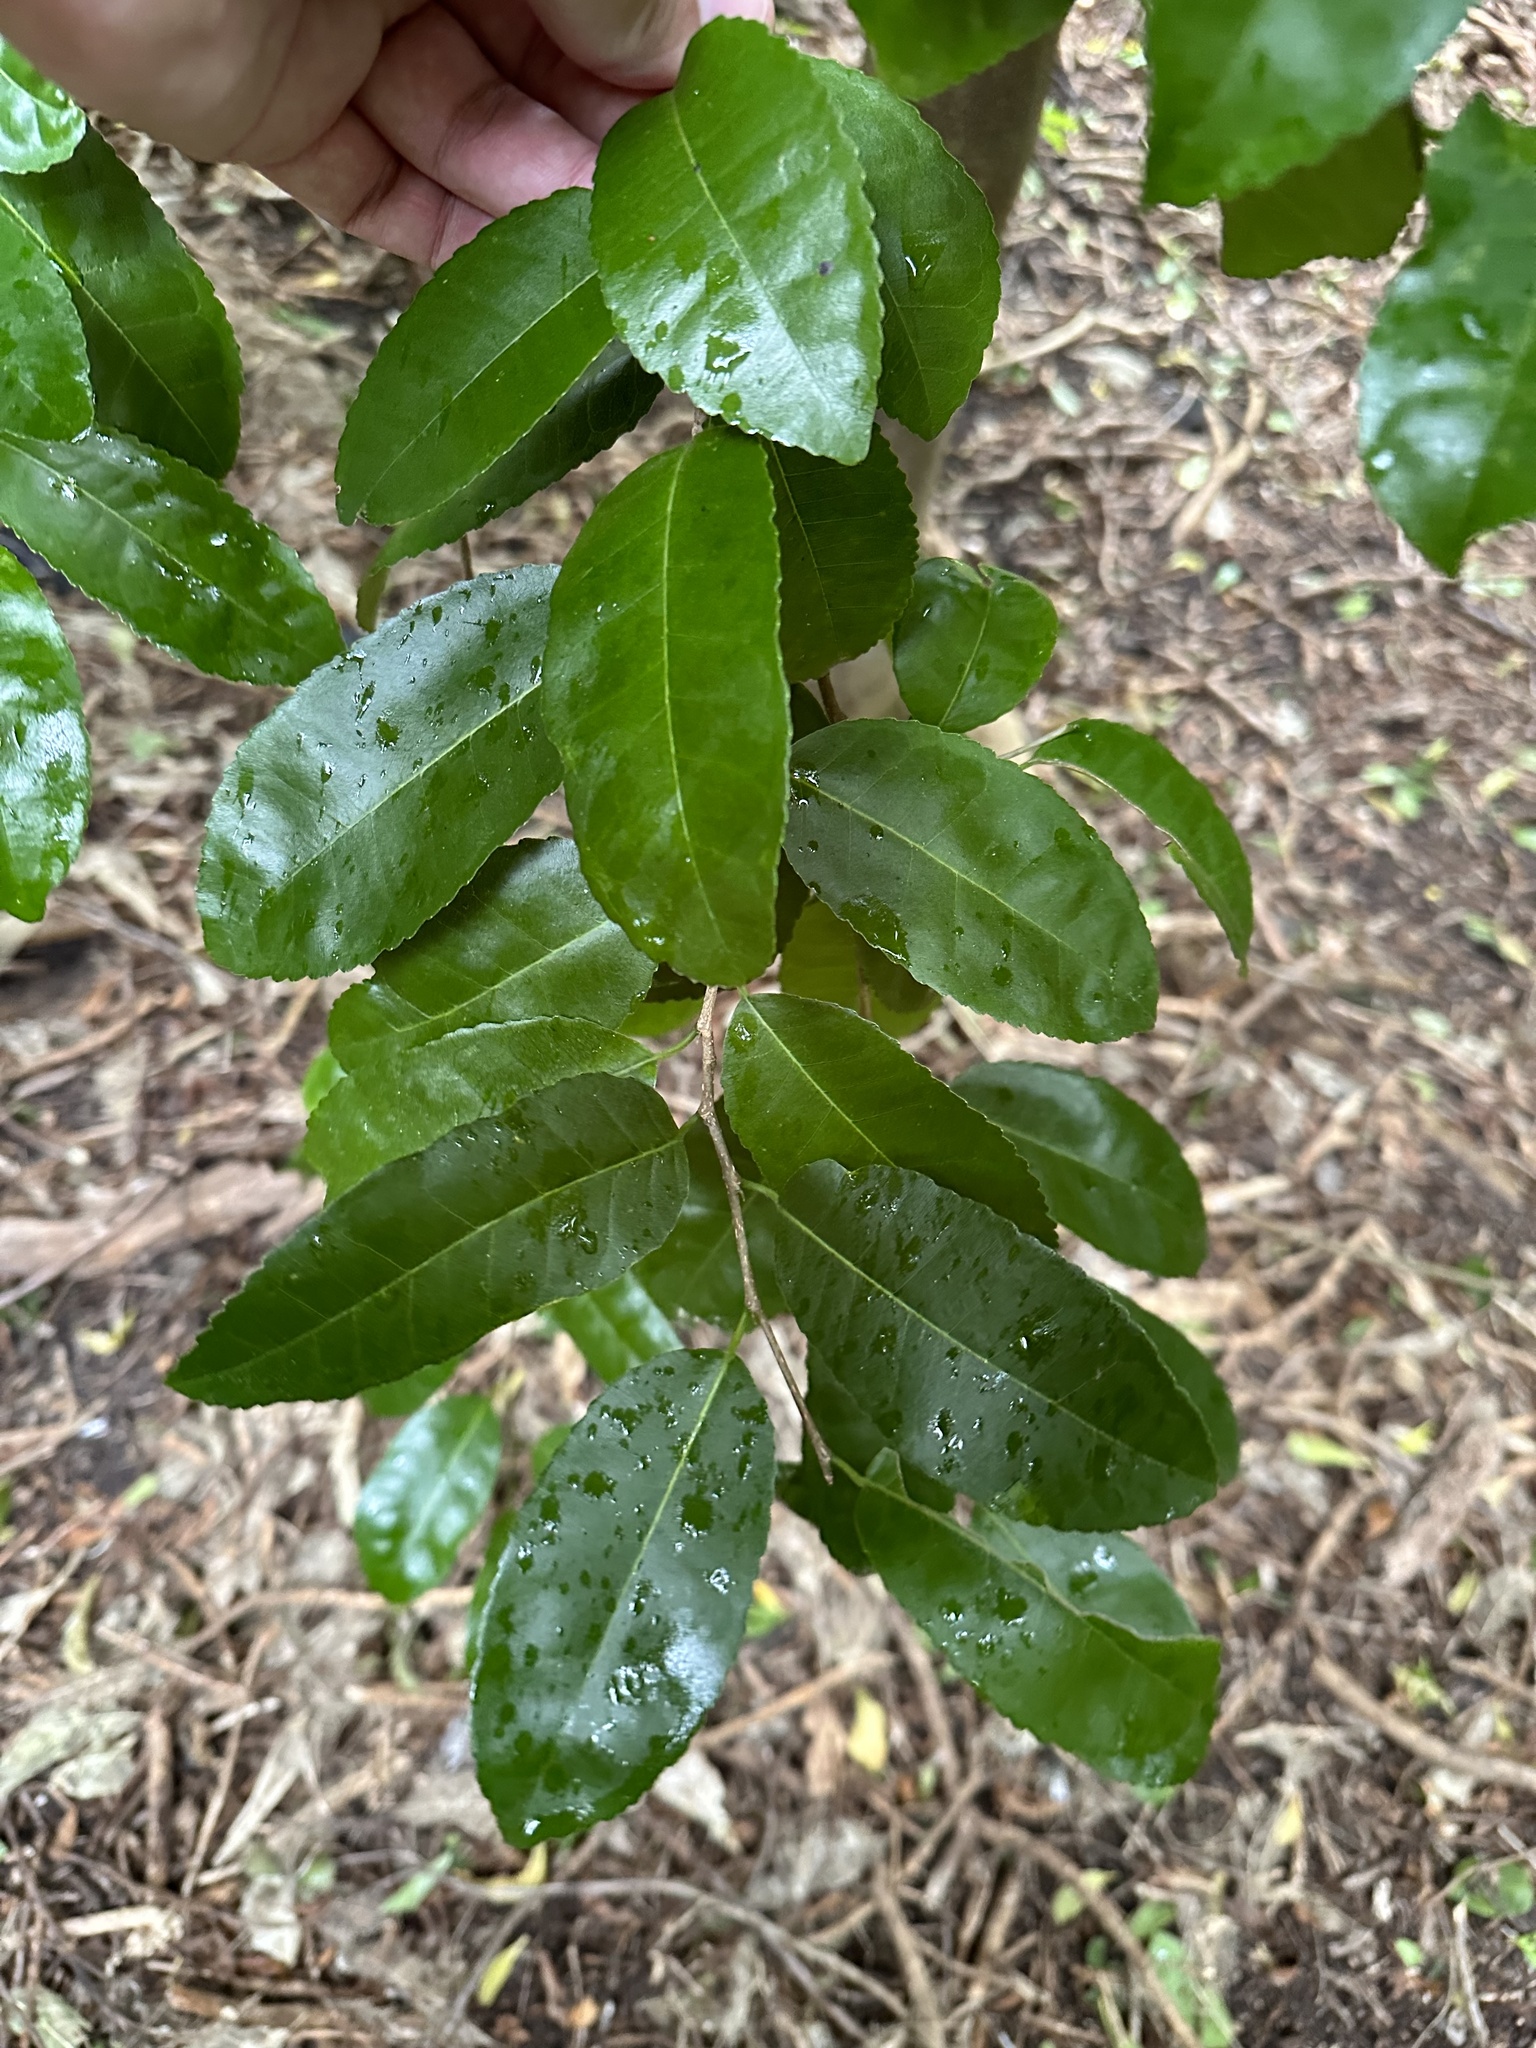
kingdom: Plantae
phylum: Tracheophyta
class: Magnoliopsida
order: Rosales
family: Moraceae
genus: Paratrophis
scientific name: Paratrophis banksii
